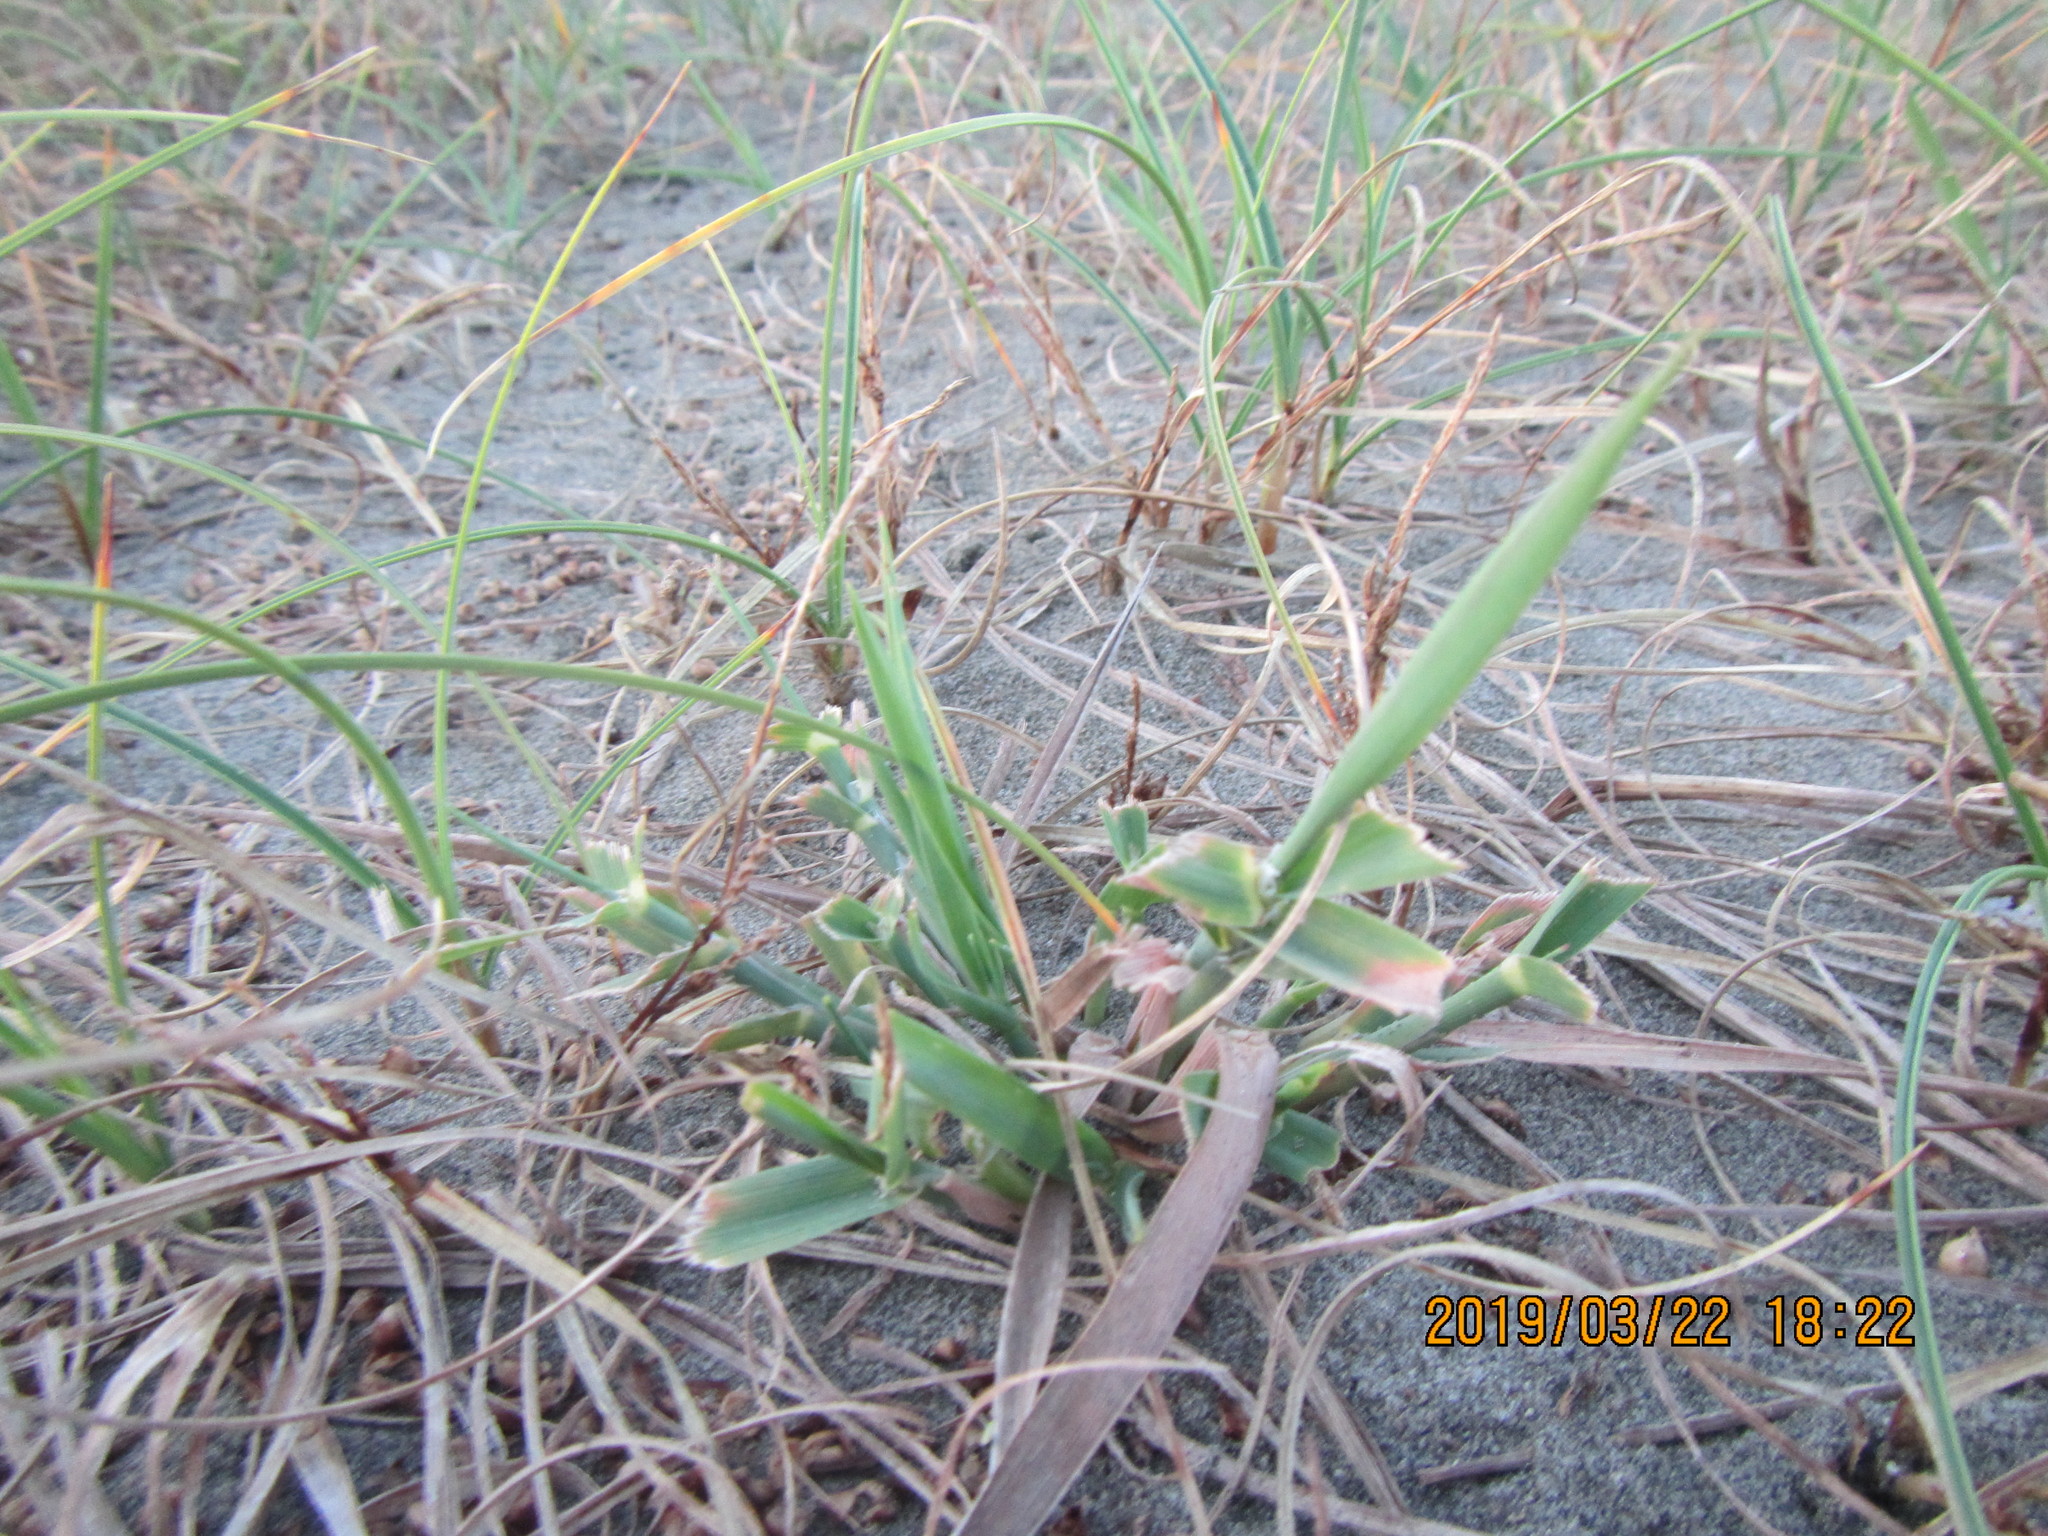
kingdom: Plantae
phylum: Tracheophyta
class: Liliopsida
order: Poales
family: Poaceae
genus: Lachnagrostis
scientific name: Lachnagrostis billardierei
